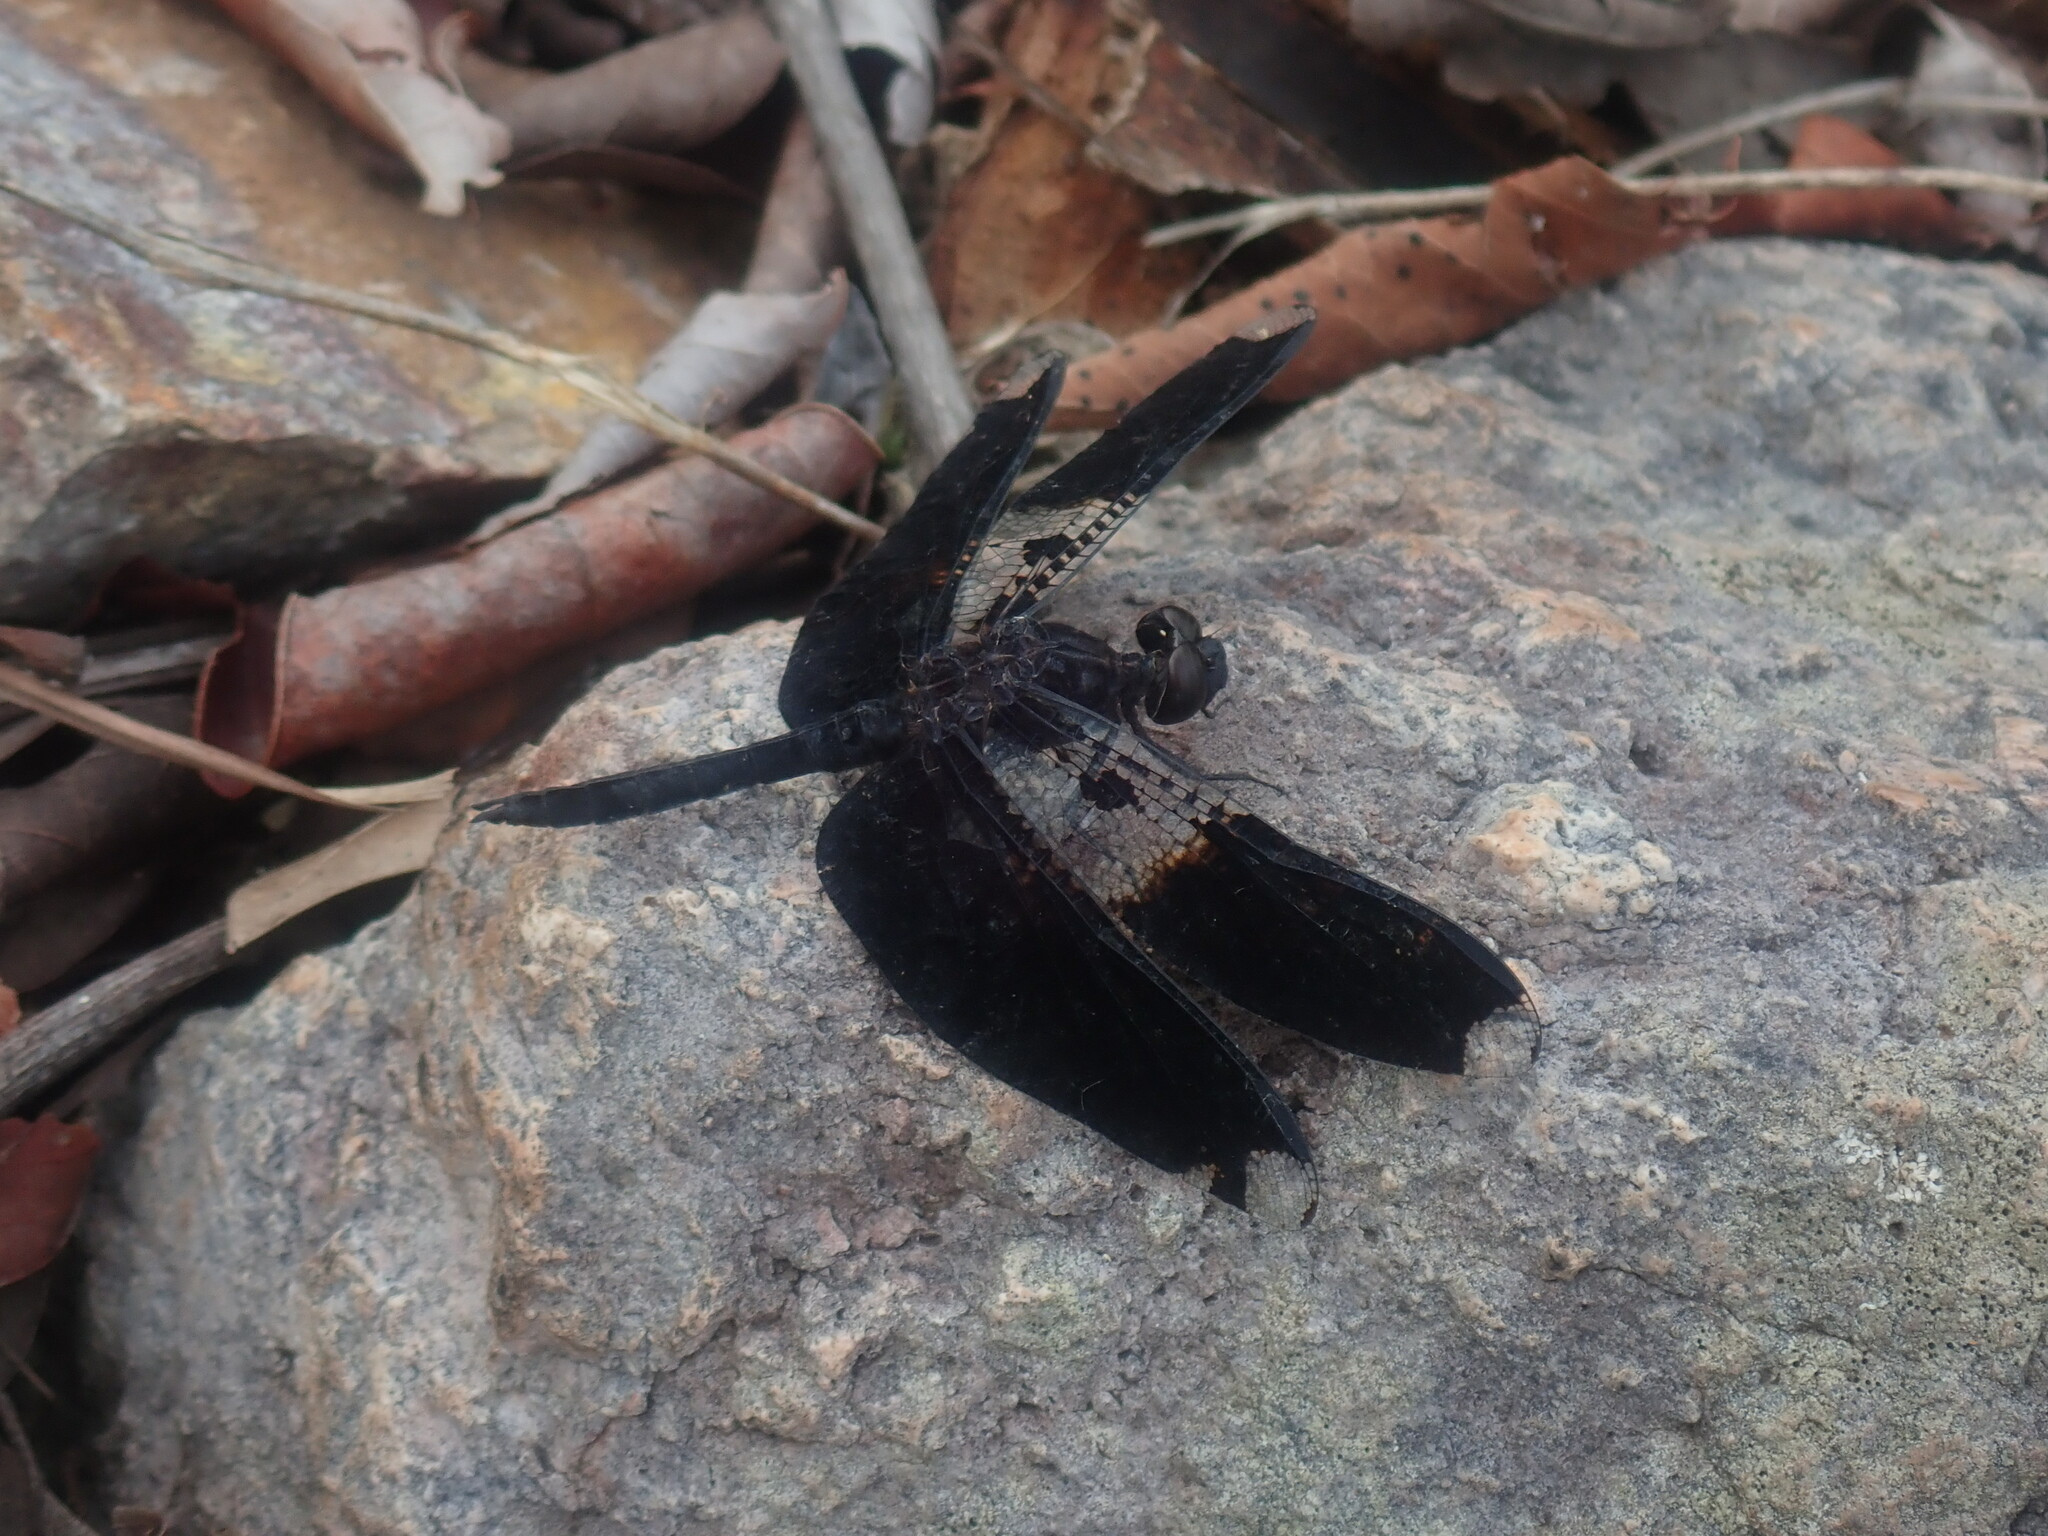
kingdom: Animalia
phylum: Arthropoda
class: Insecta
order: Odonata
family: Libellulidae
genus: Pseudoleon
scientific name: Pseudoleon superbus
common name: Filigree skimmer
